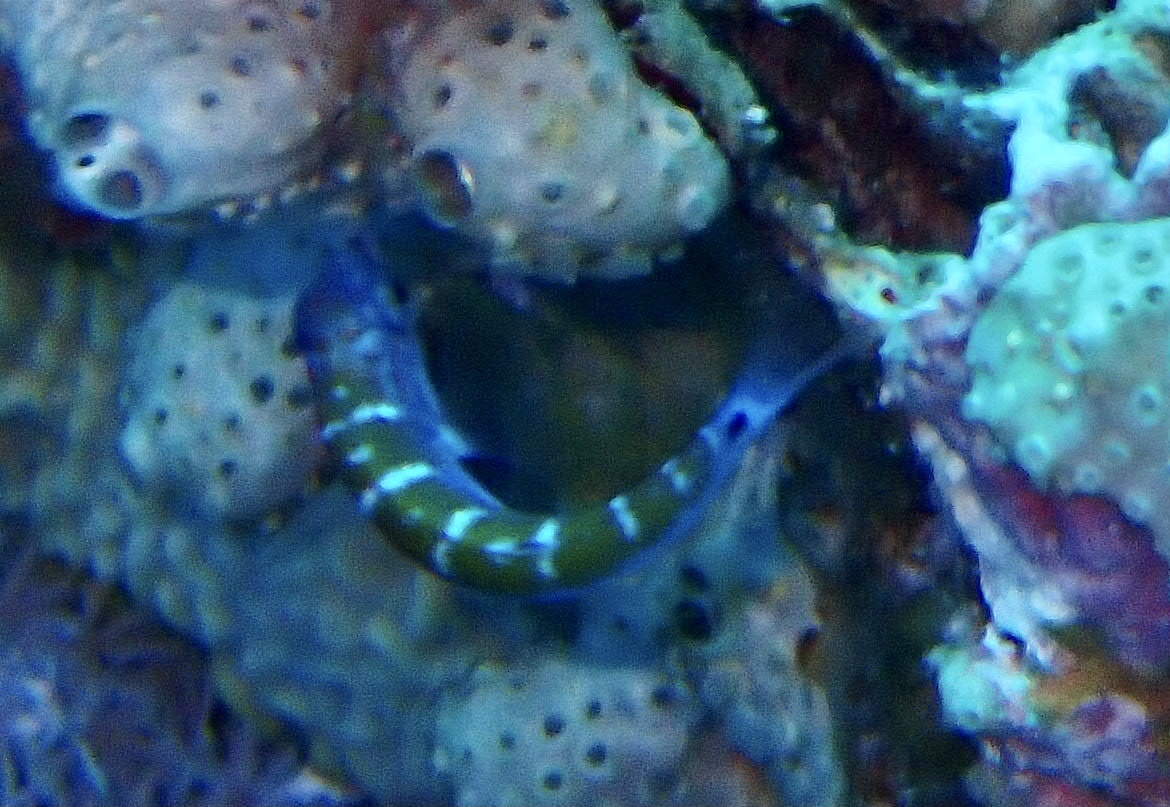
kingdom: Animalia
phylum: Chordata
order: Perciformes
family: Labridae
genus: Thalassoma
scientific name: Thalassoma lunare
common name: Blue wrasse
